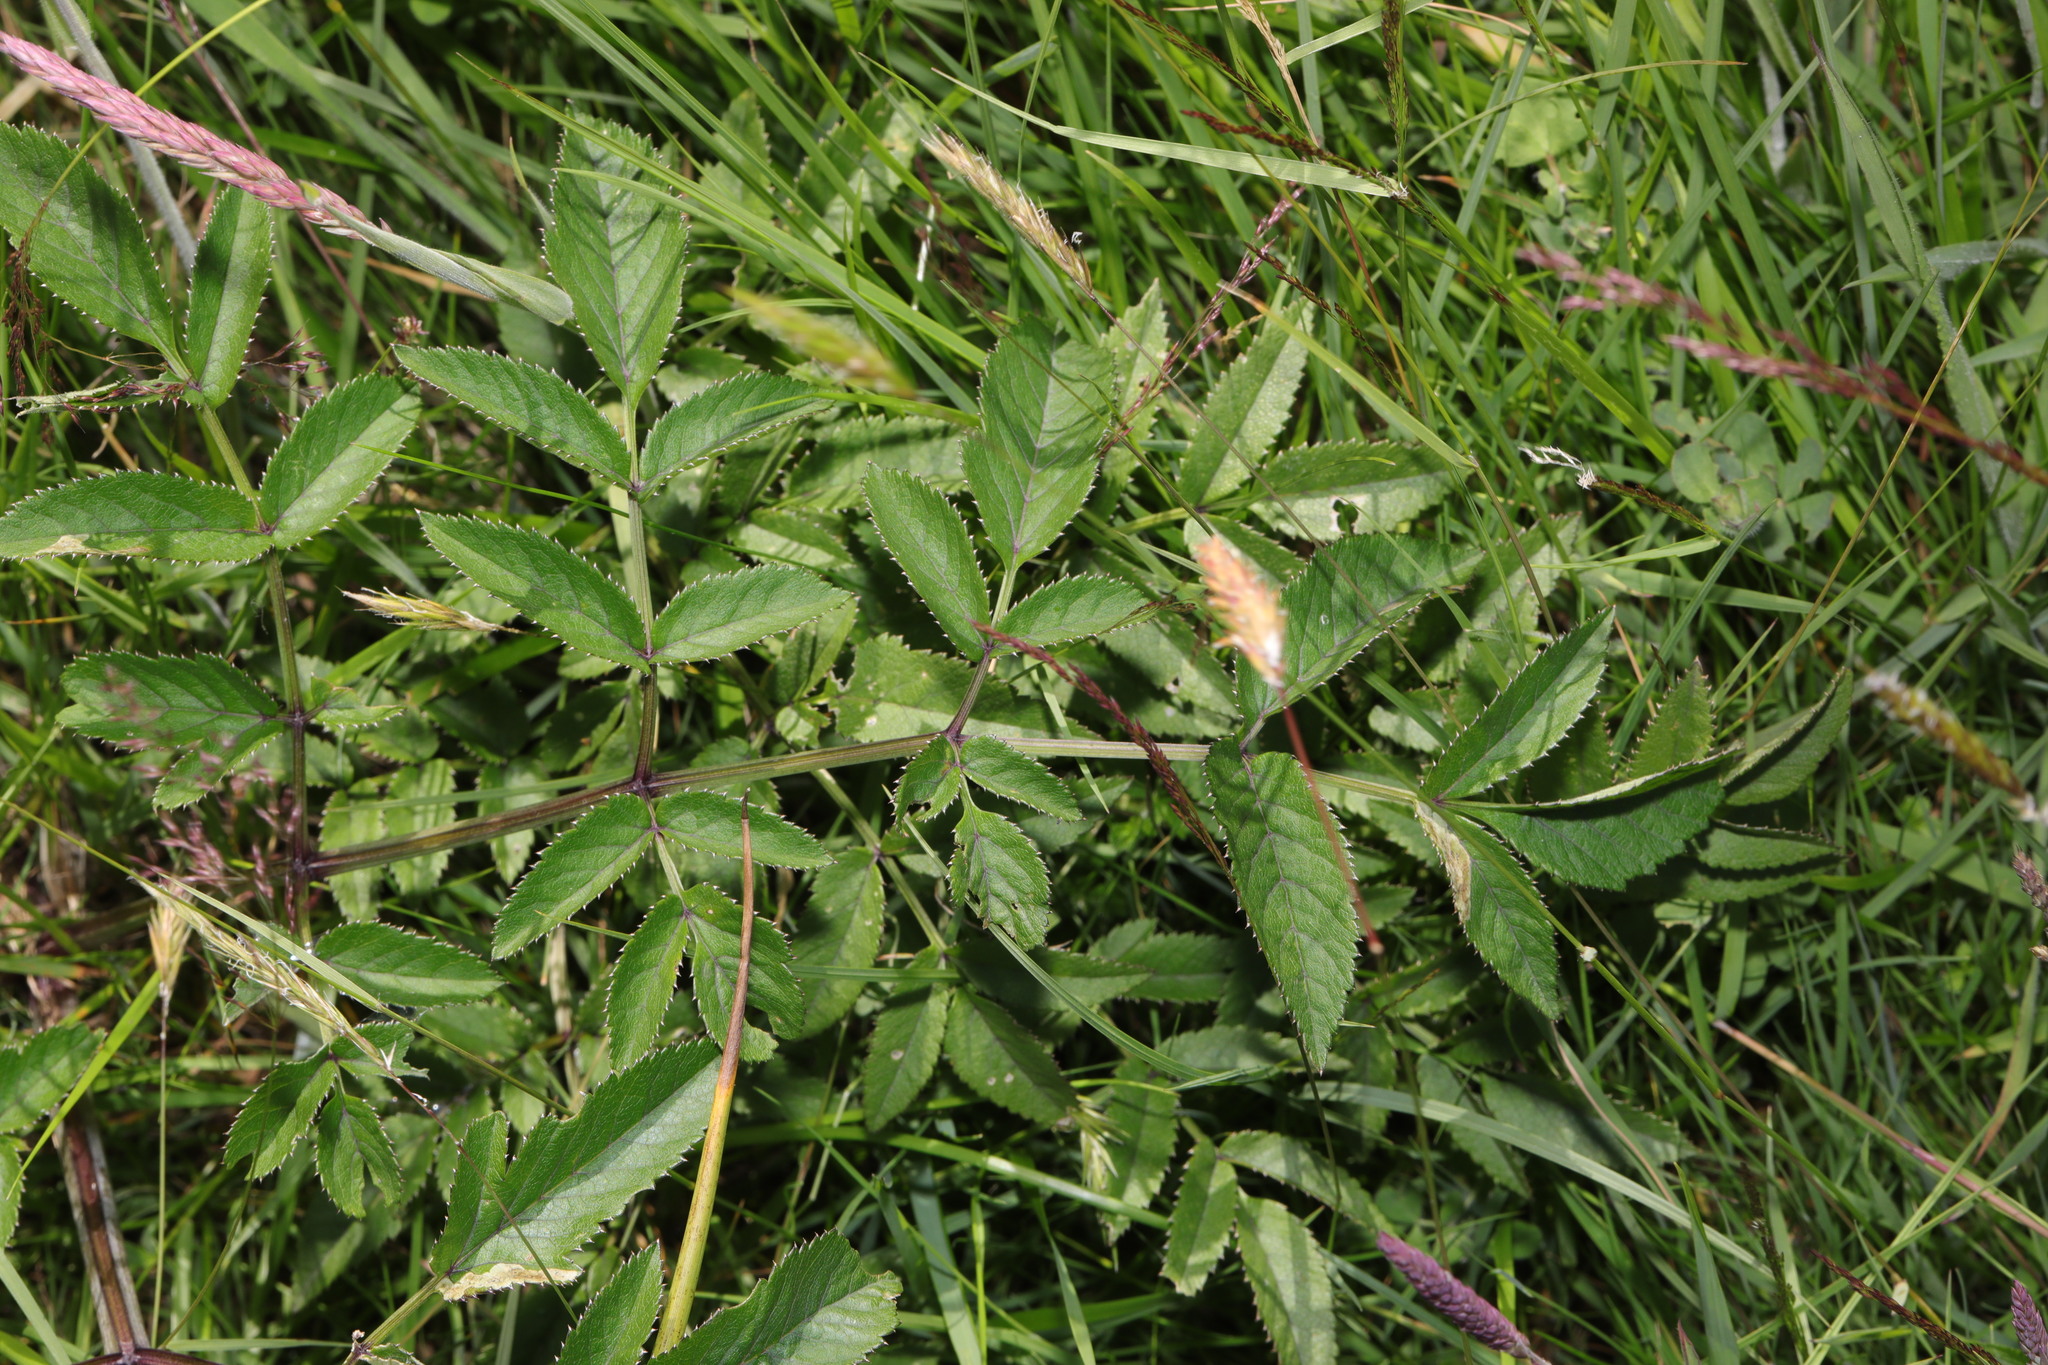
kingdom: Plantae
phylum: Tracheophyta
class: Magnoliopsida
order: Apiales
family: Apiaceae
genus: Angelica
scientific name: Angelica sylvestris
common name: Wild angelica
